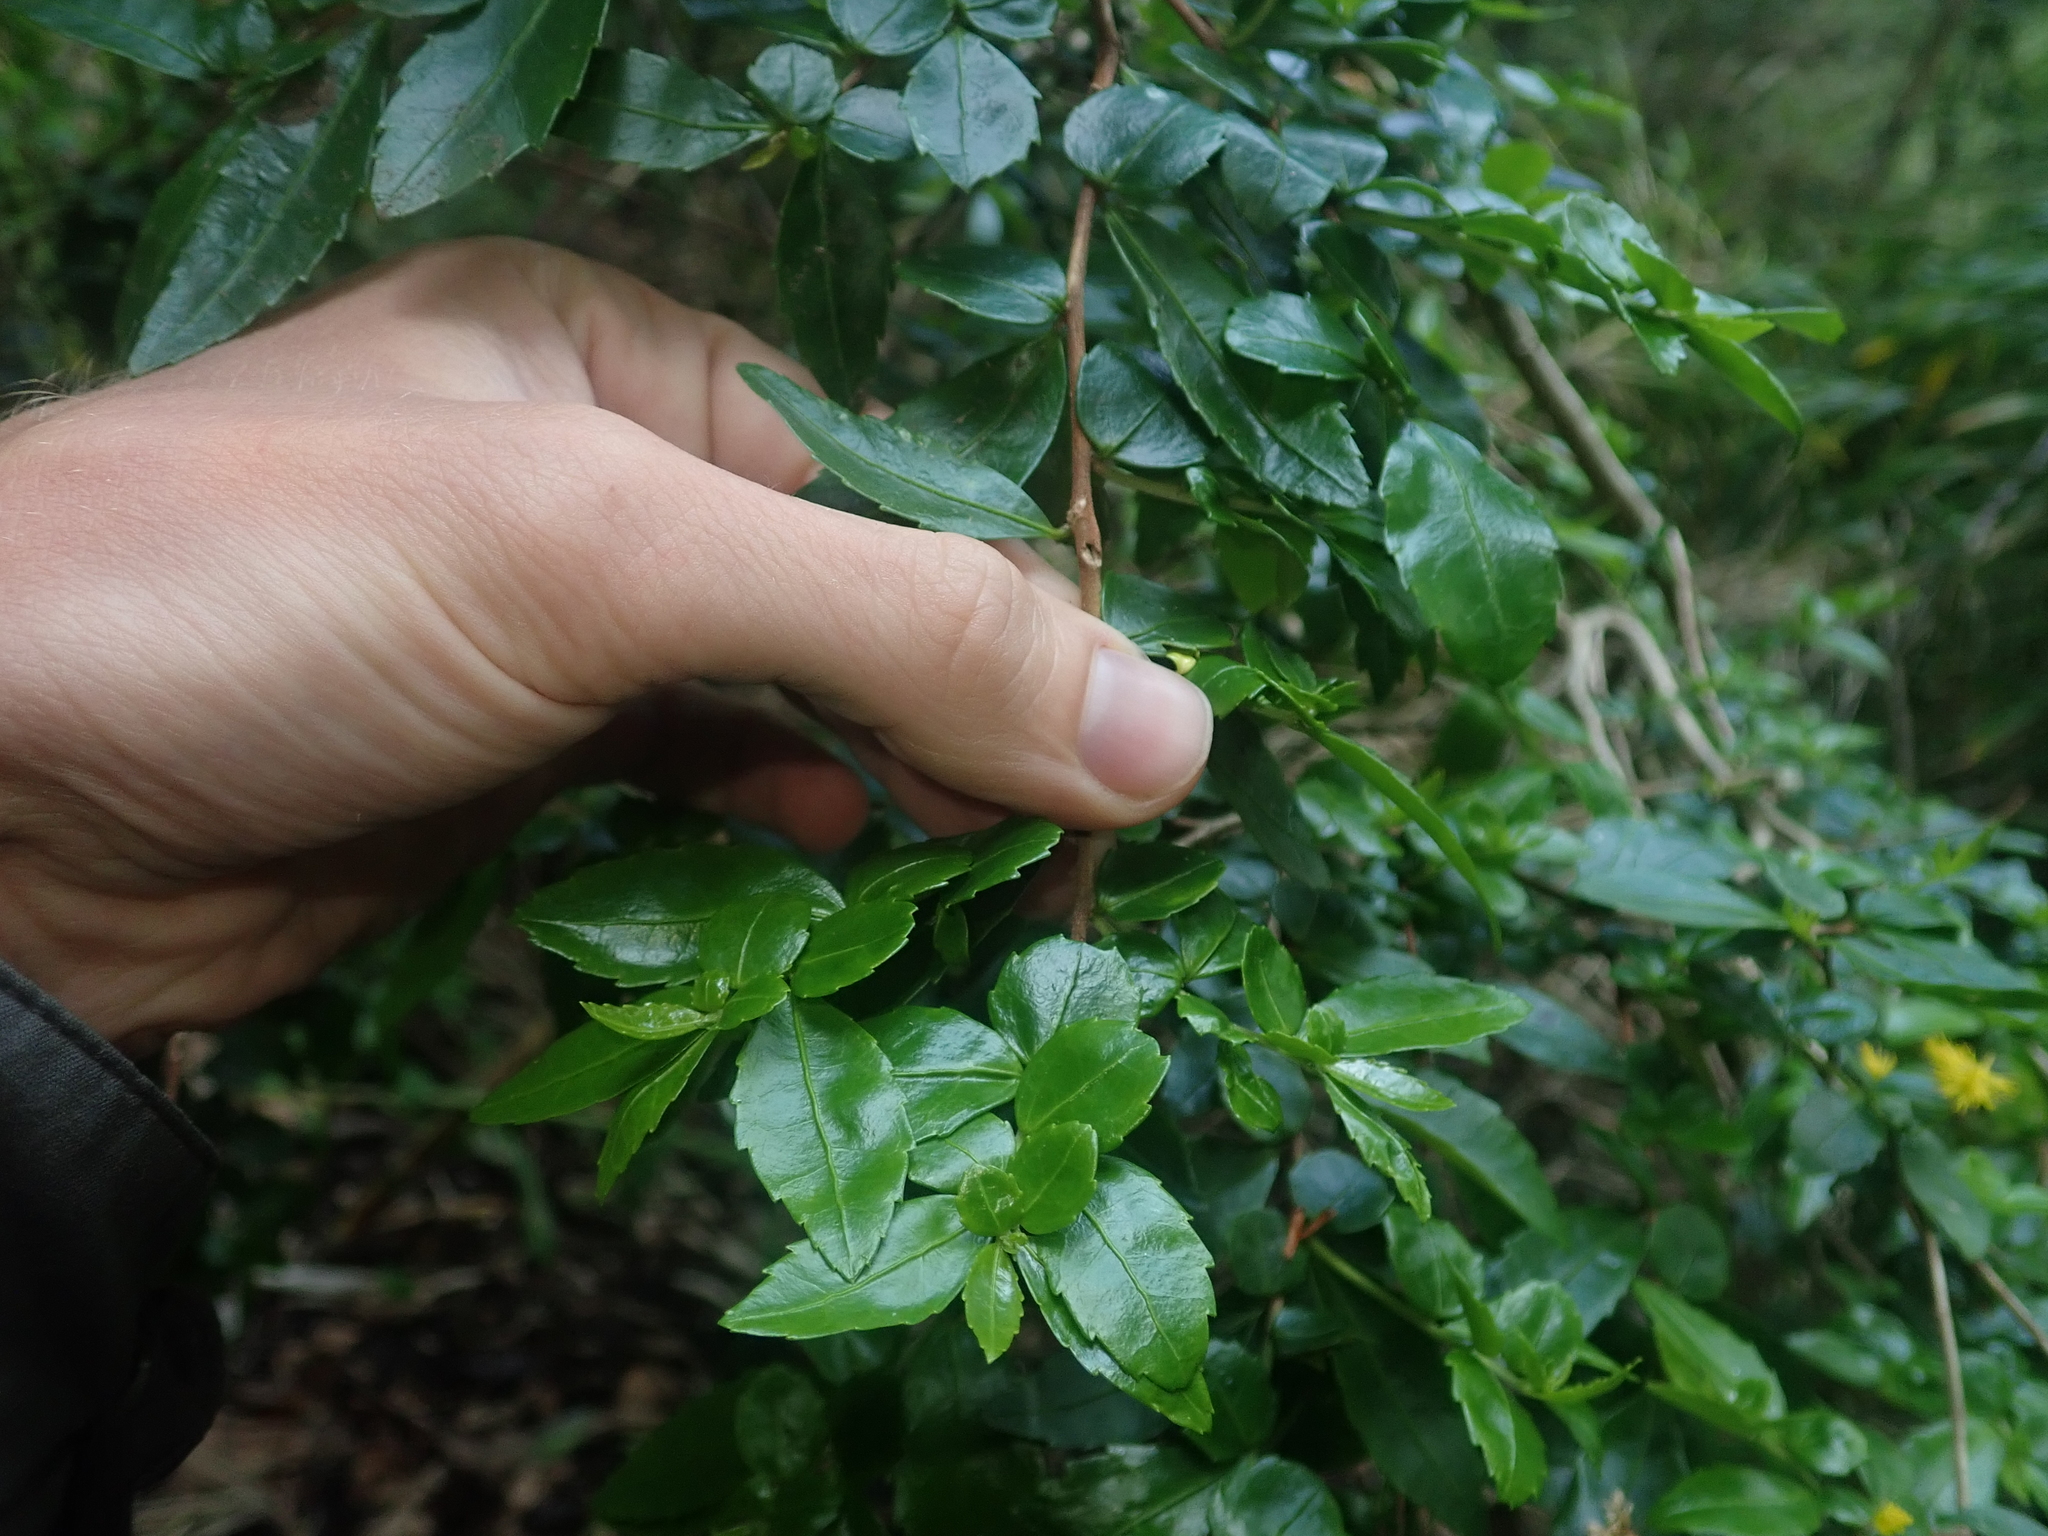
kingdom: Plantae
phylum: Tracheophyta
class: Magnoliopsida
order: Malpighiales
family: Salicaceae
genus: Azara
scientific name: Azara lanceolata
